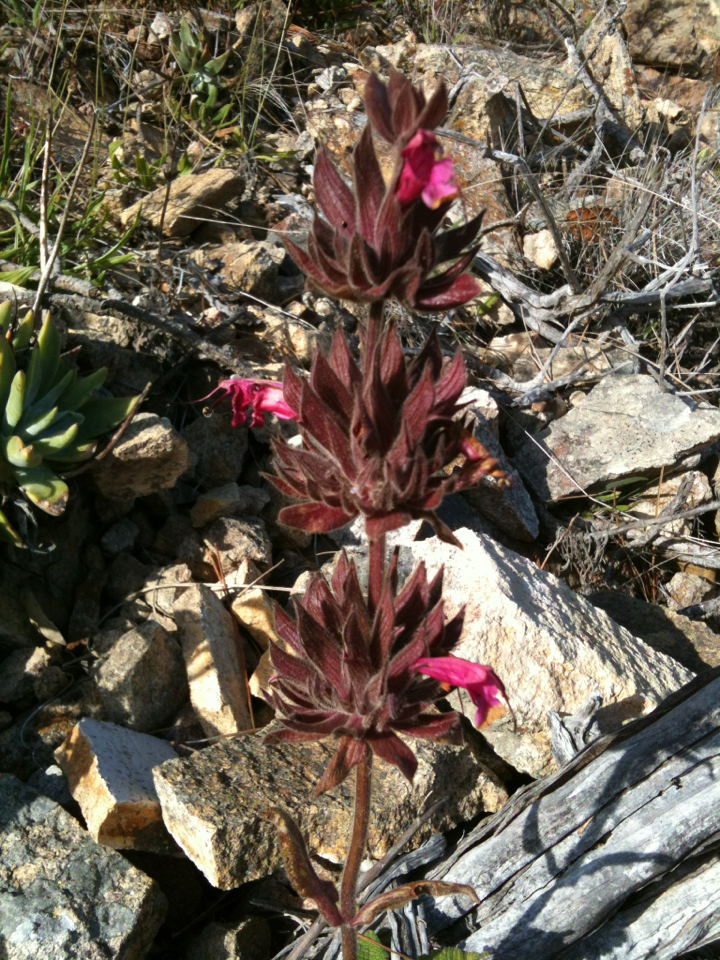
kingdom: Plantae
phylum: Tracheophyta
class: Magnoliopsida
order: Lamiales
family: Lamiaceae
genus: Salvia
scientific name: Salvia spathacea
